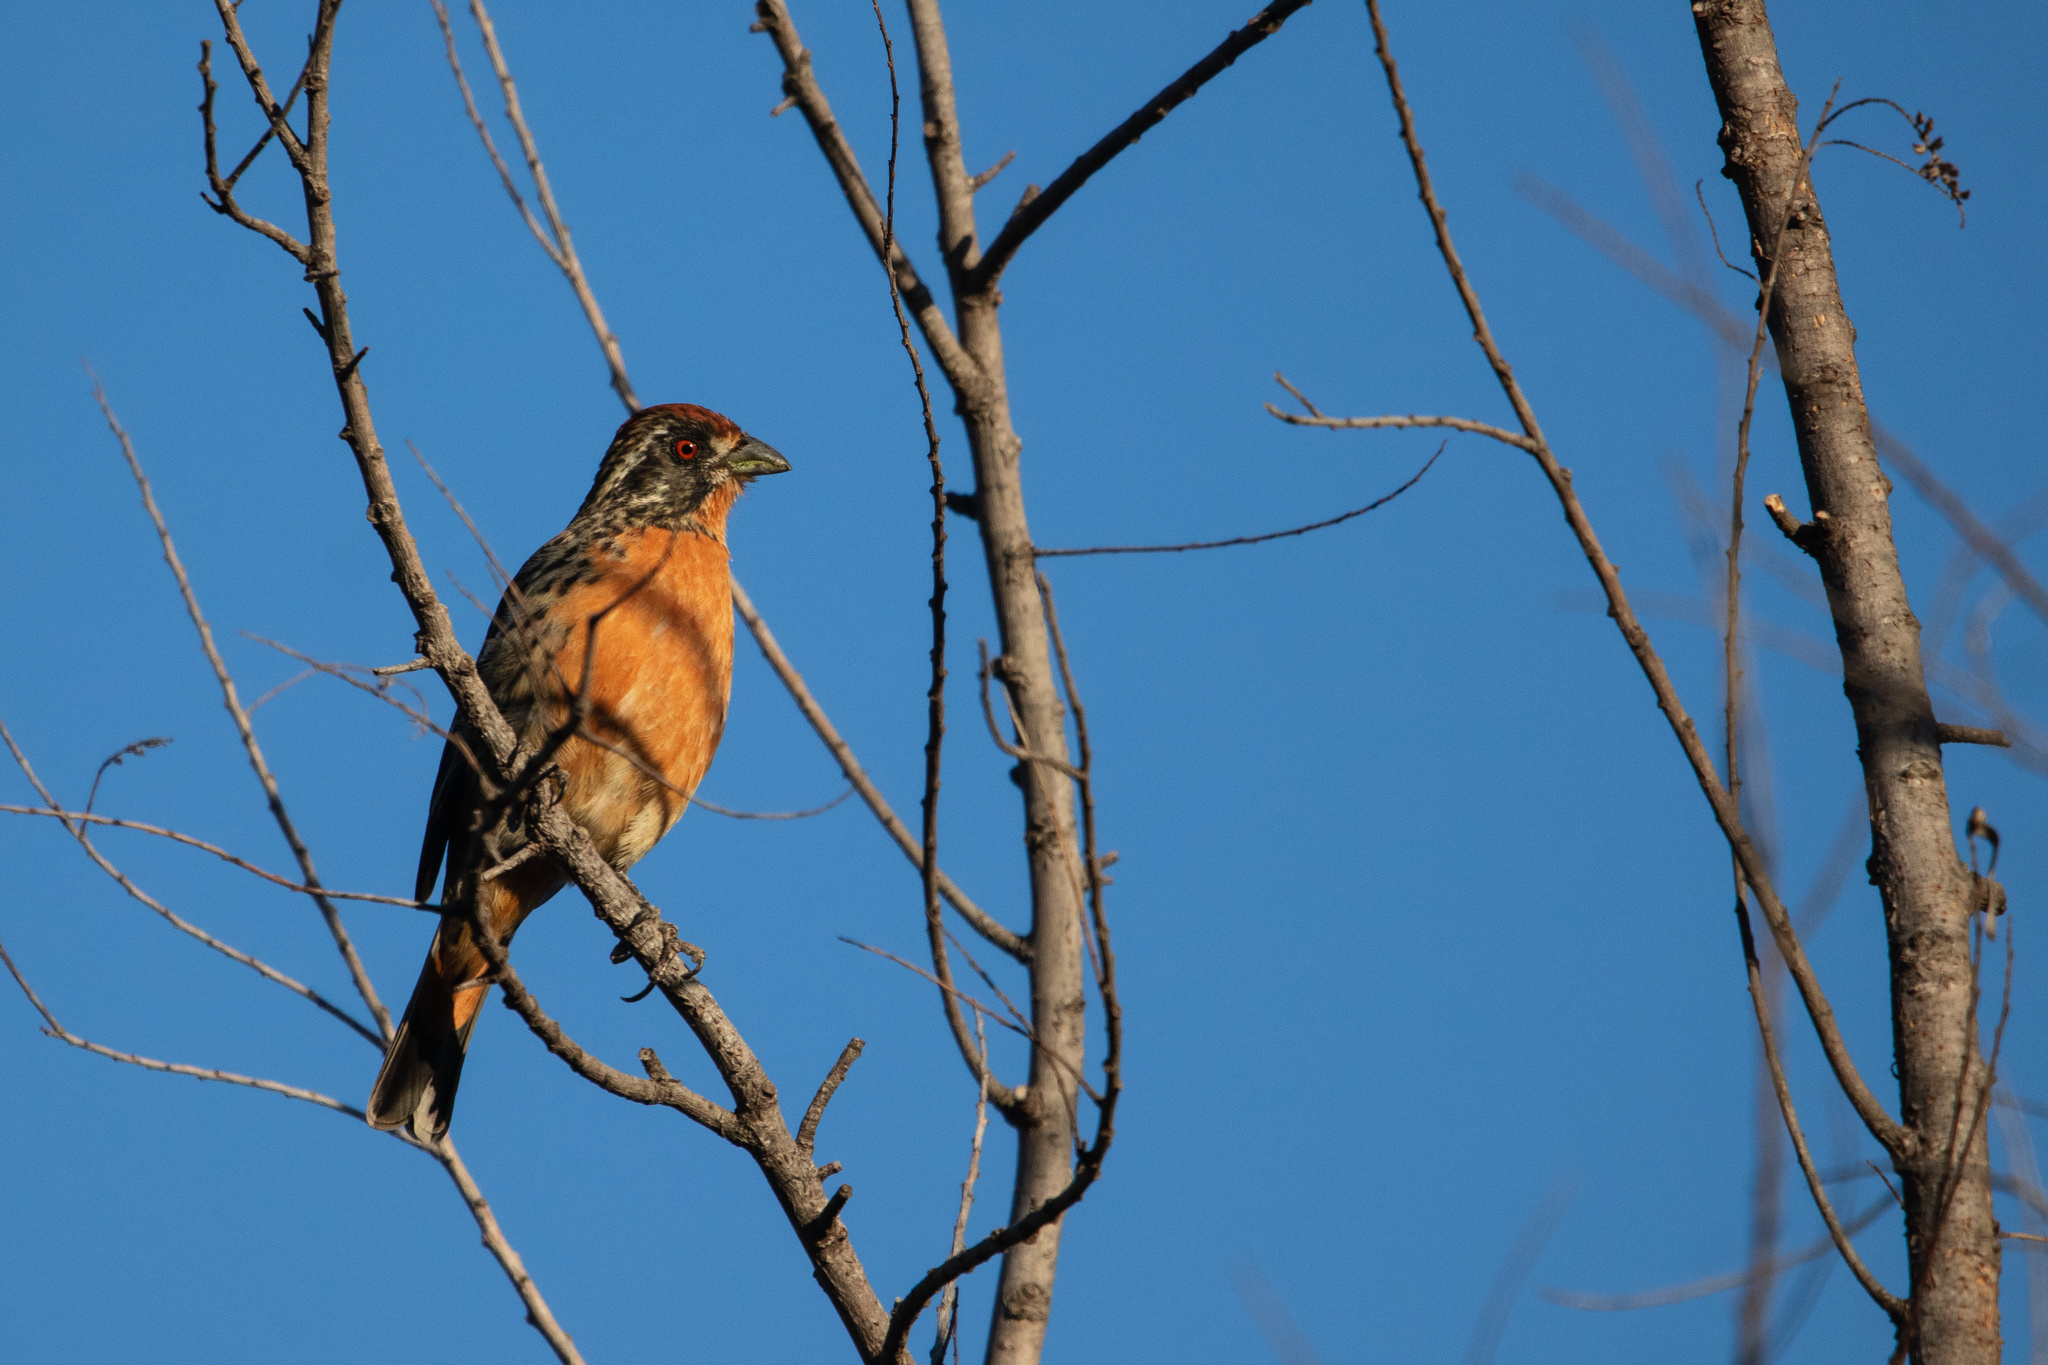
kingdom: Animalia
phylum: Chordata
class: Aves
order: Passeriformes
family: Cotingidae
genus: Phytotoma
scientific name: Phytotoma rara
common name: Rufous-tailed plantcutter
